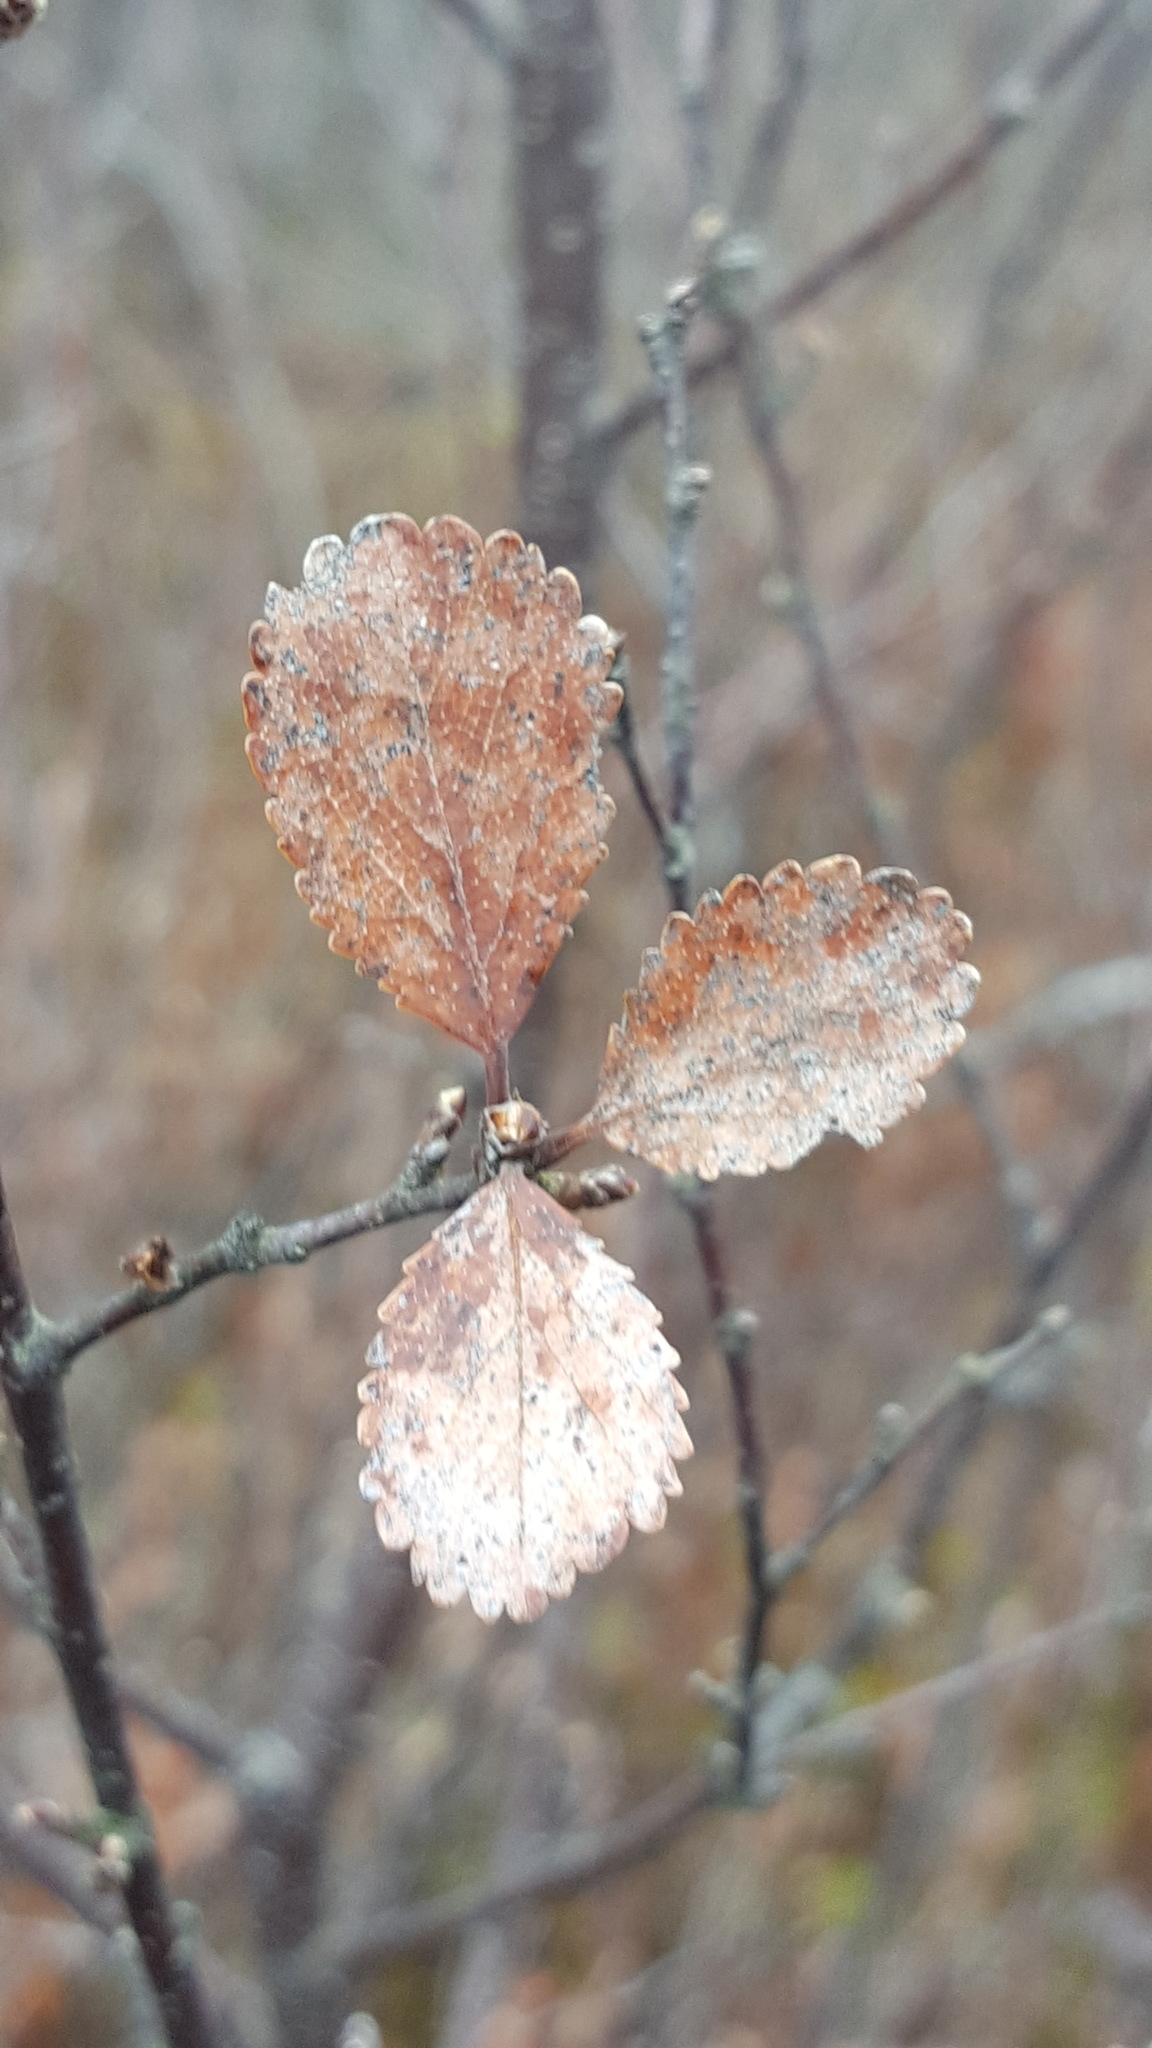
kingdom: Plantae
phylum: Tracheophyta
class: Magnoliopsida
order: Fagales
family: Betulaceae
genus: Betula
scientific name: Betula pumila
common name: Bog birch
